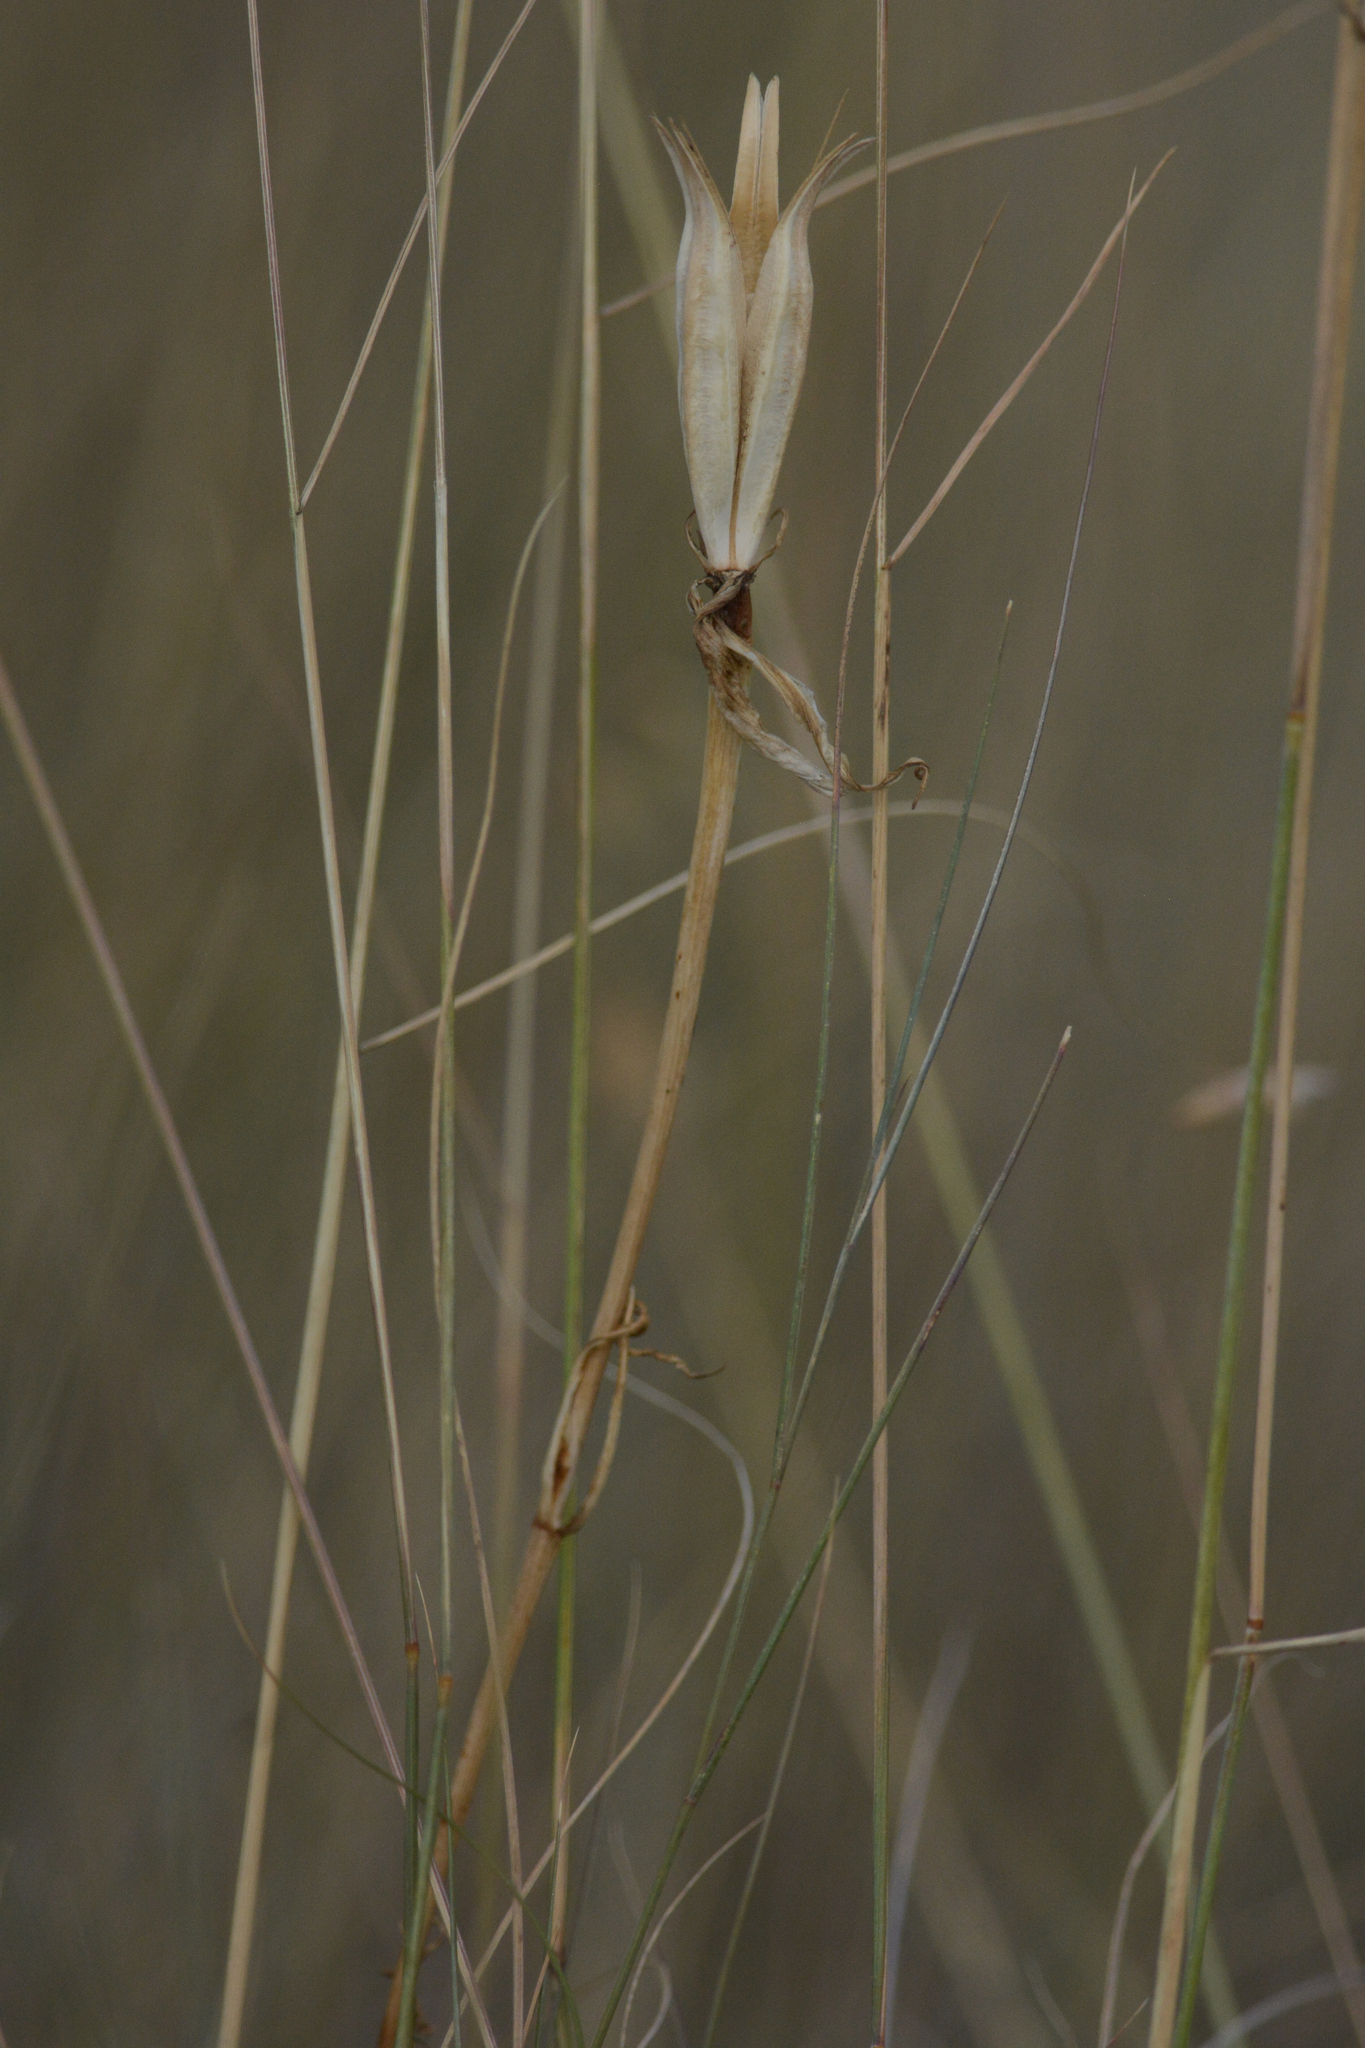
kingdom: Plantae
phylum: Tracheophyta
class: Liliopsida
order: Liliales
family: Liliaceae
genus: Calochortus
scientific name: Calochortus macrocarpus
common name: Green-band mariposa lily
